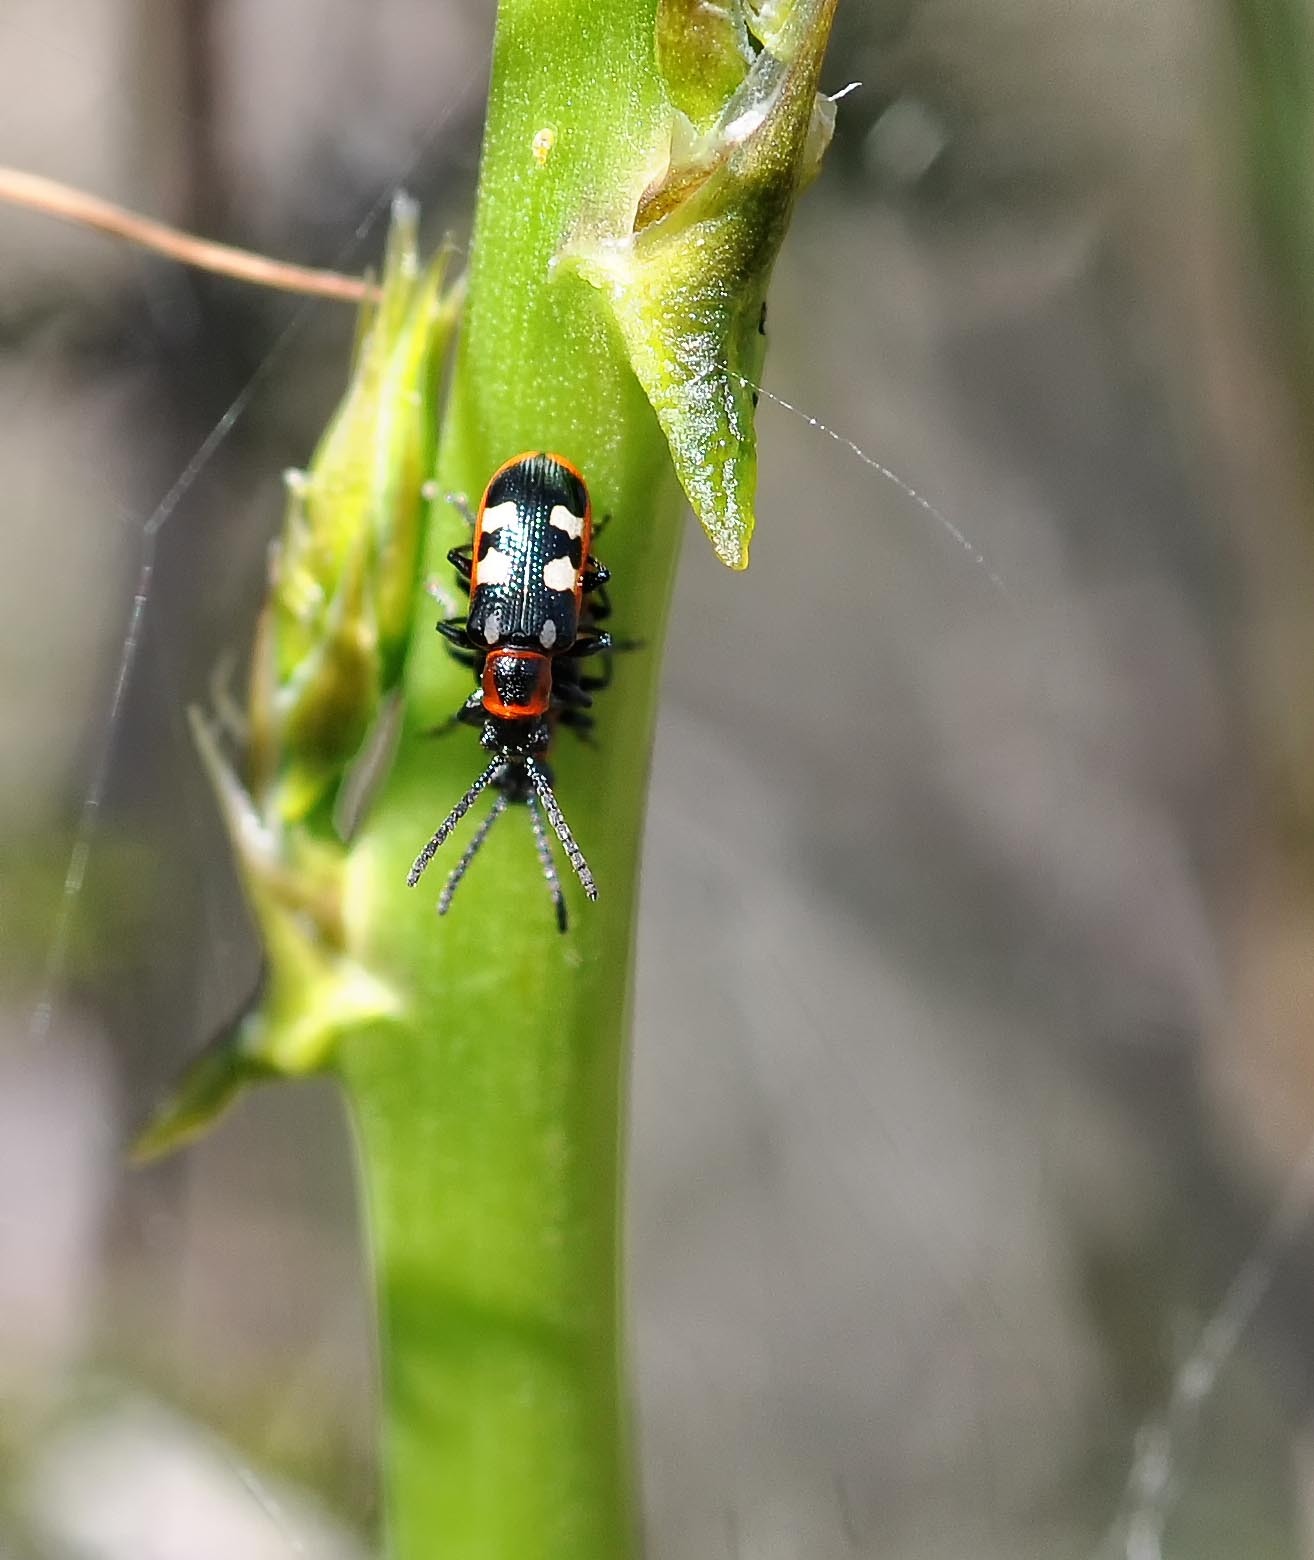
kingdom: Animalia
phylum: Arthropoda
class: Insecta
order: Coleoptera
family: Chrysomelidae
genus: Crioceris
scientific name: Crioceris asparagi
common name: Asparagus beetle
